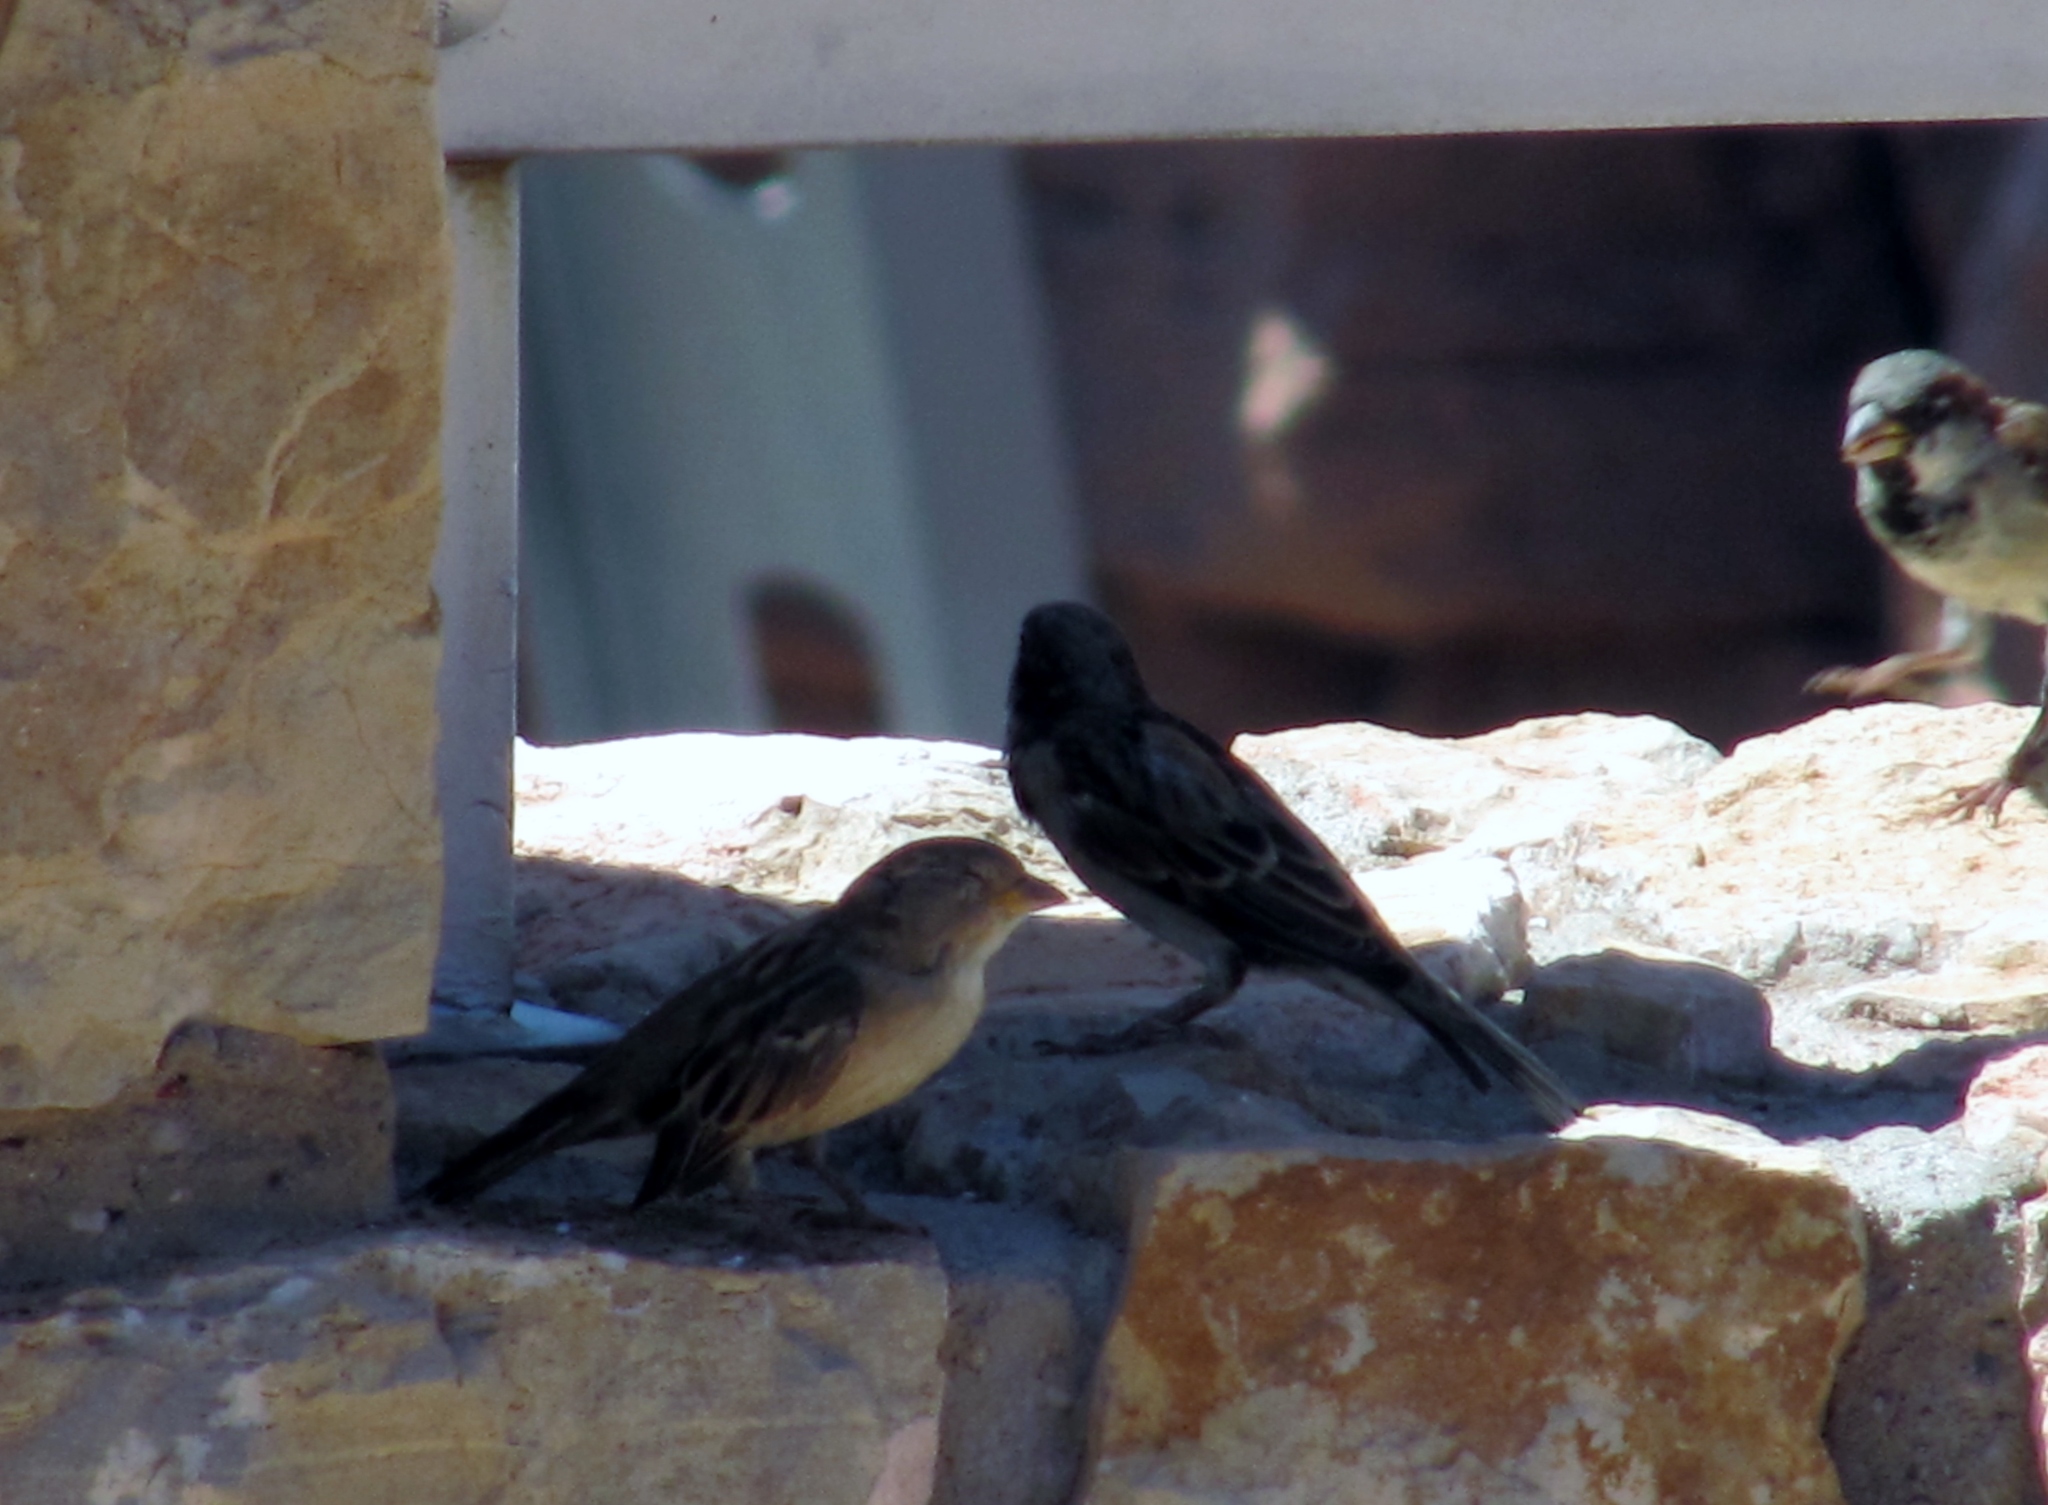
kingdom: Animalia
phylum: Chordata
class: Aves
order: Passeriformes
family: Passeridae
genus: Passer
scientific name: Passer domesticus
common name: House sparrow
